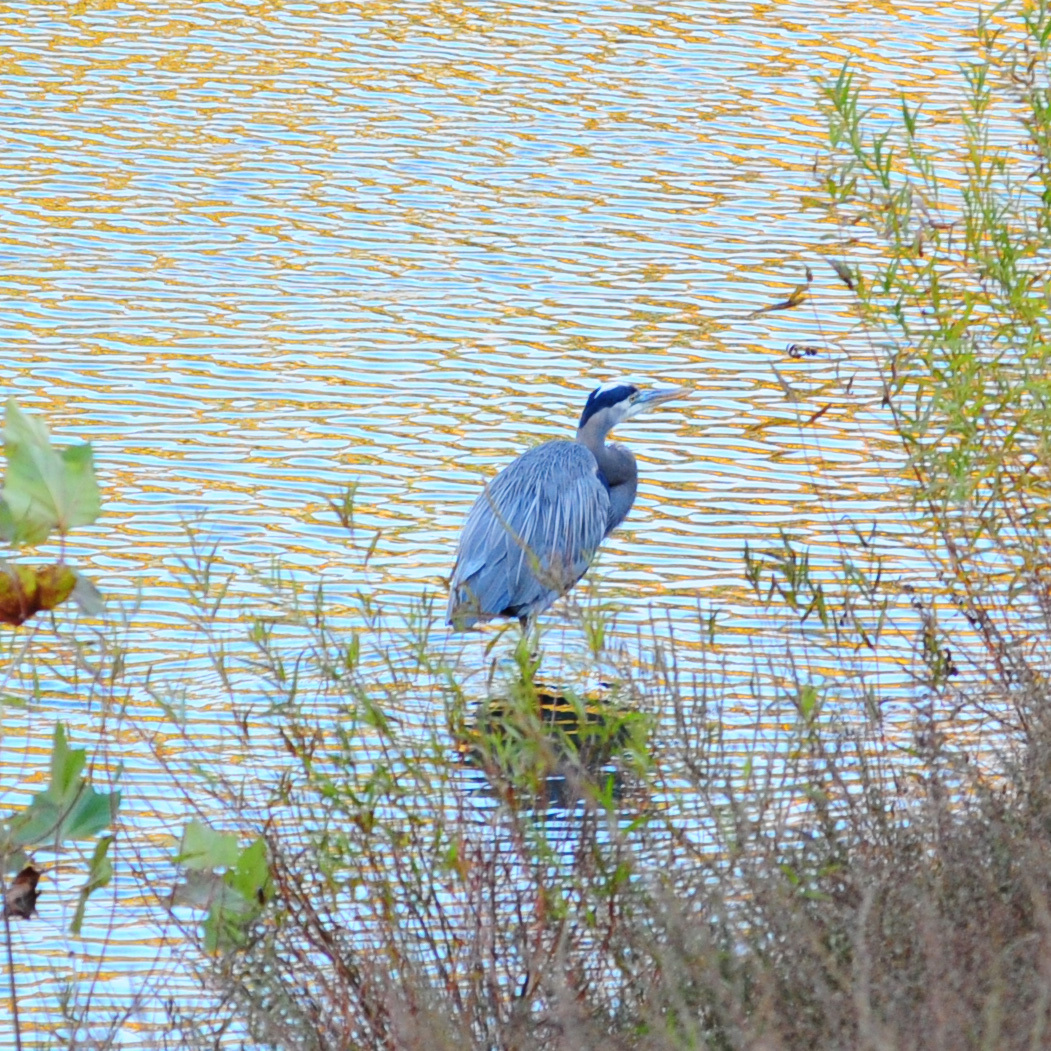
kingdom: Animalia
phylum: Chordata
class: Aves
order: Pelecaniformes
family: Ardeidae
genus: Ardea
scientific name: Ardea herodias
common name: Great blue heron
